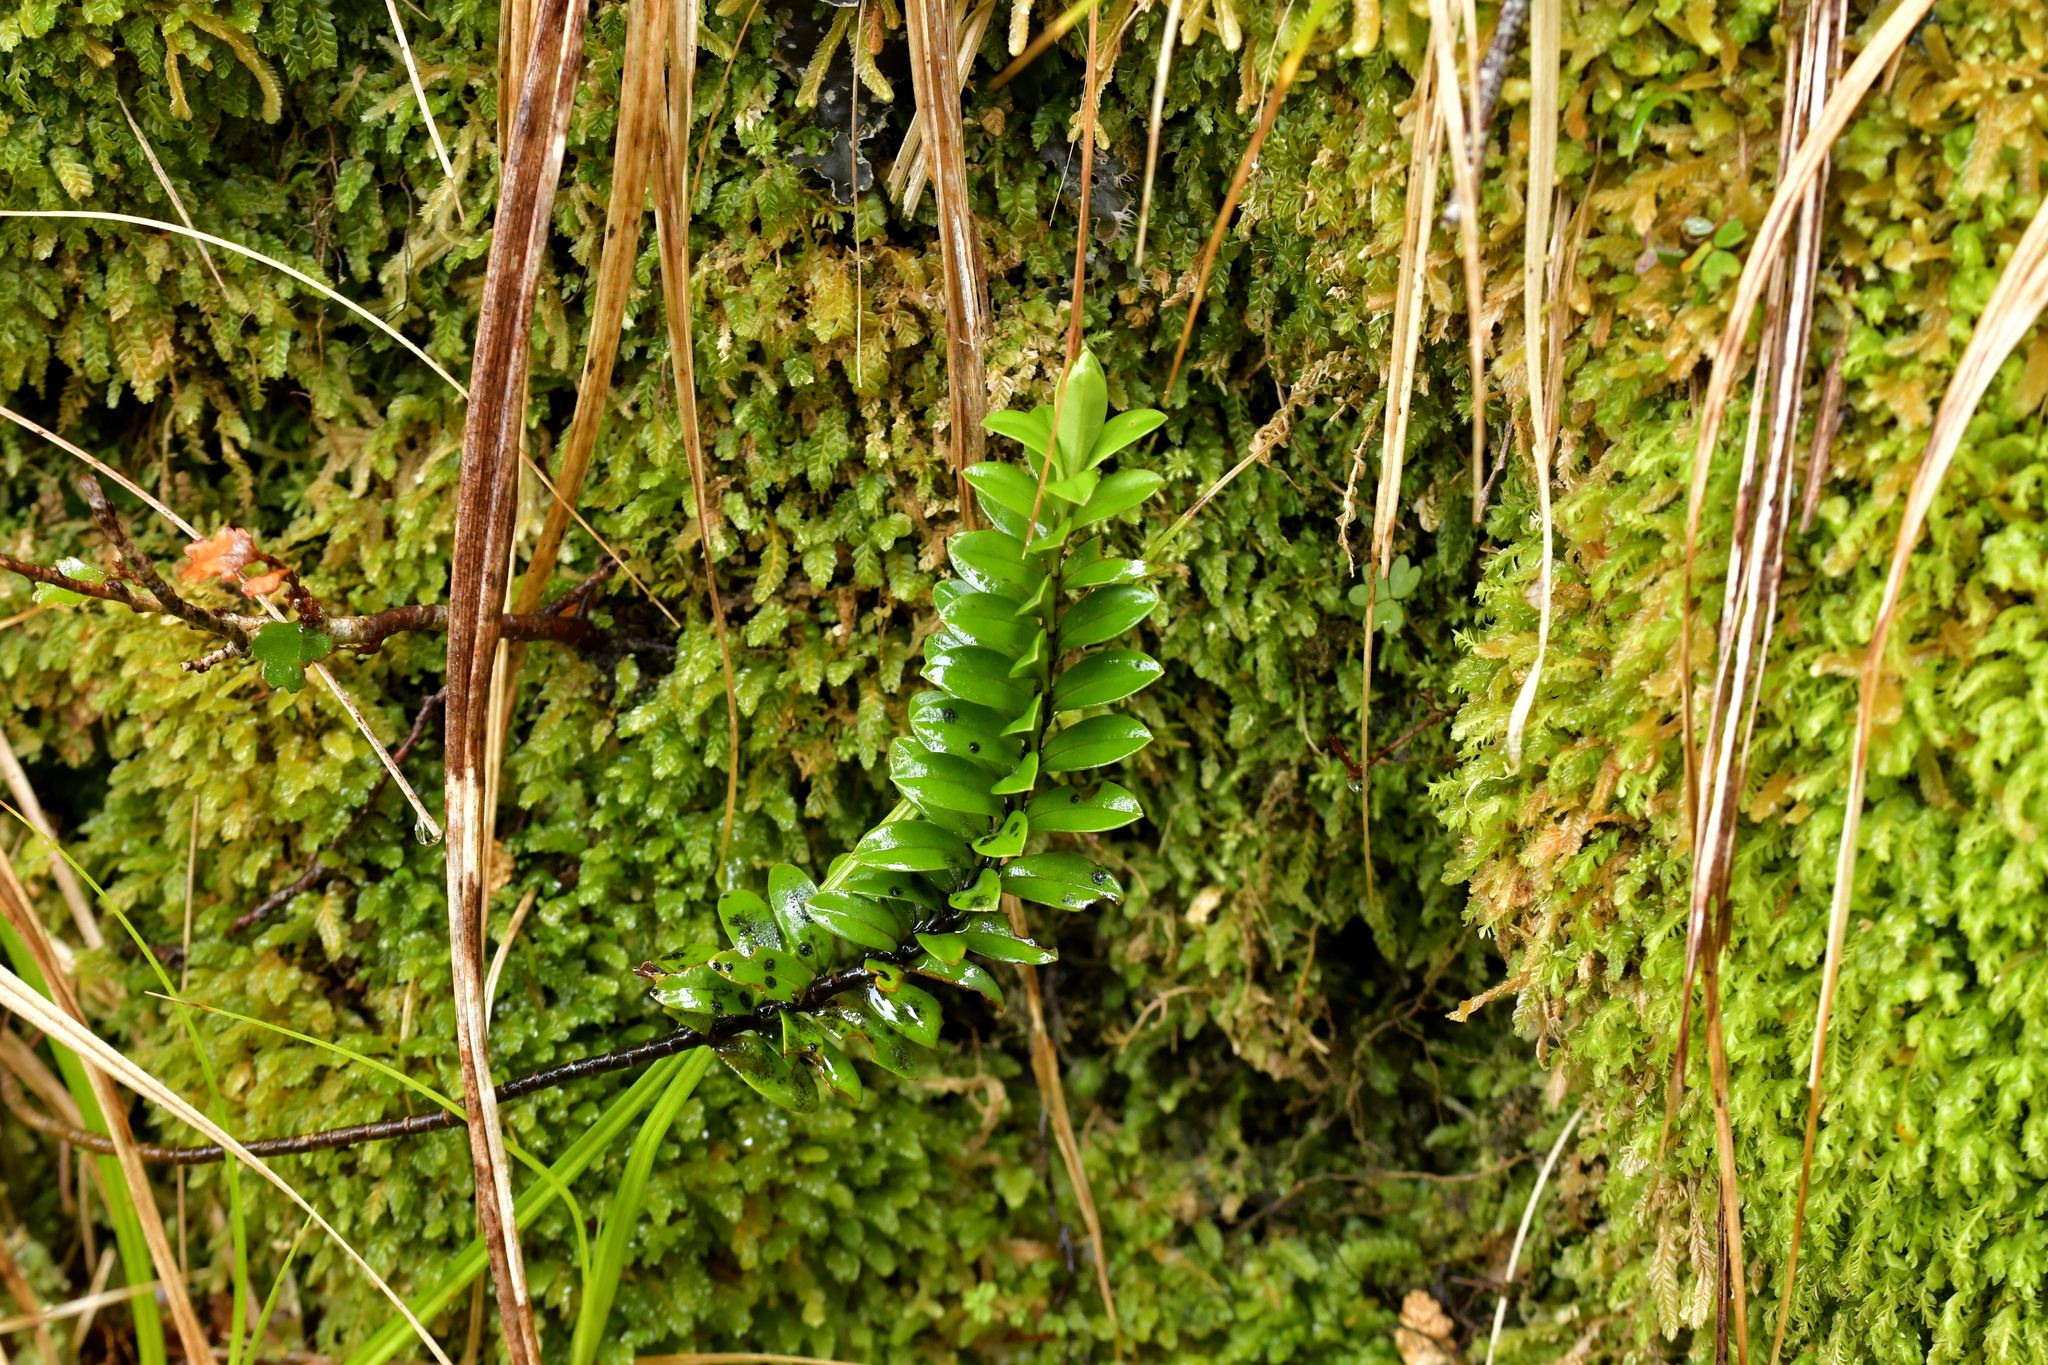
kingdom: Plantae
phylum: Tracheophyta
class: Magnoliopsida
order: Lamiales
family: Plantaginaceae
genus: Veronica
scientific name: Veronica vernicosa
